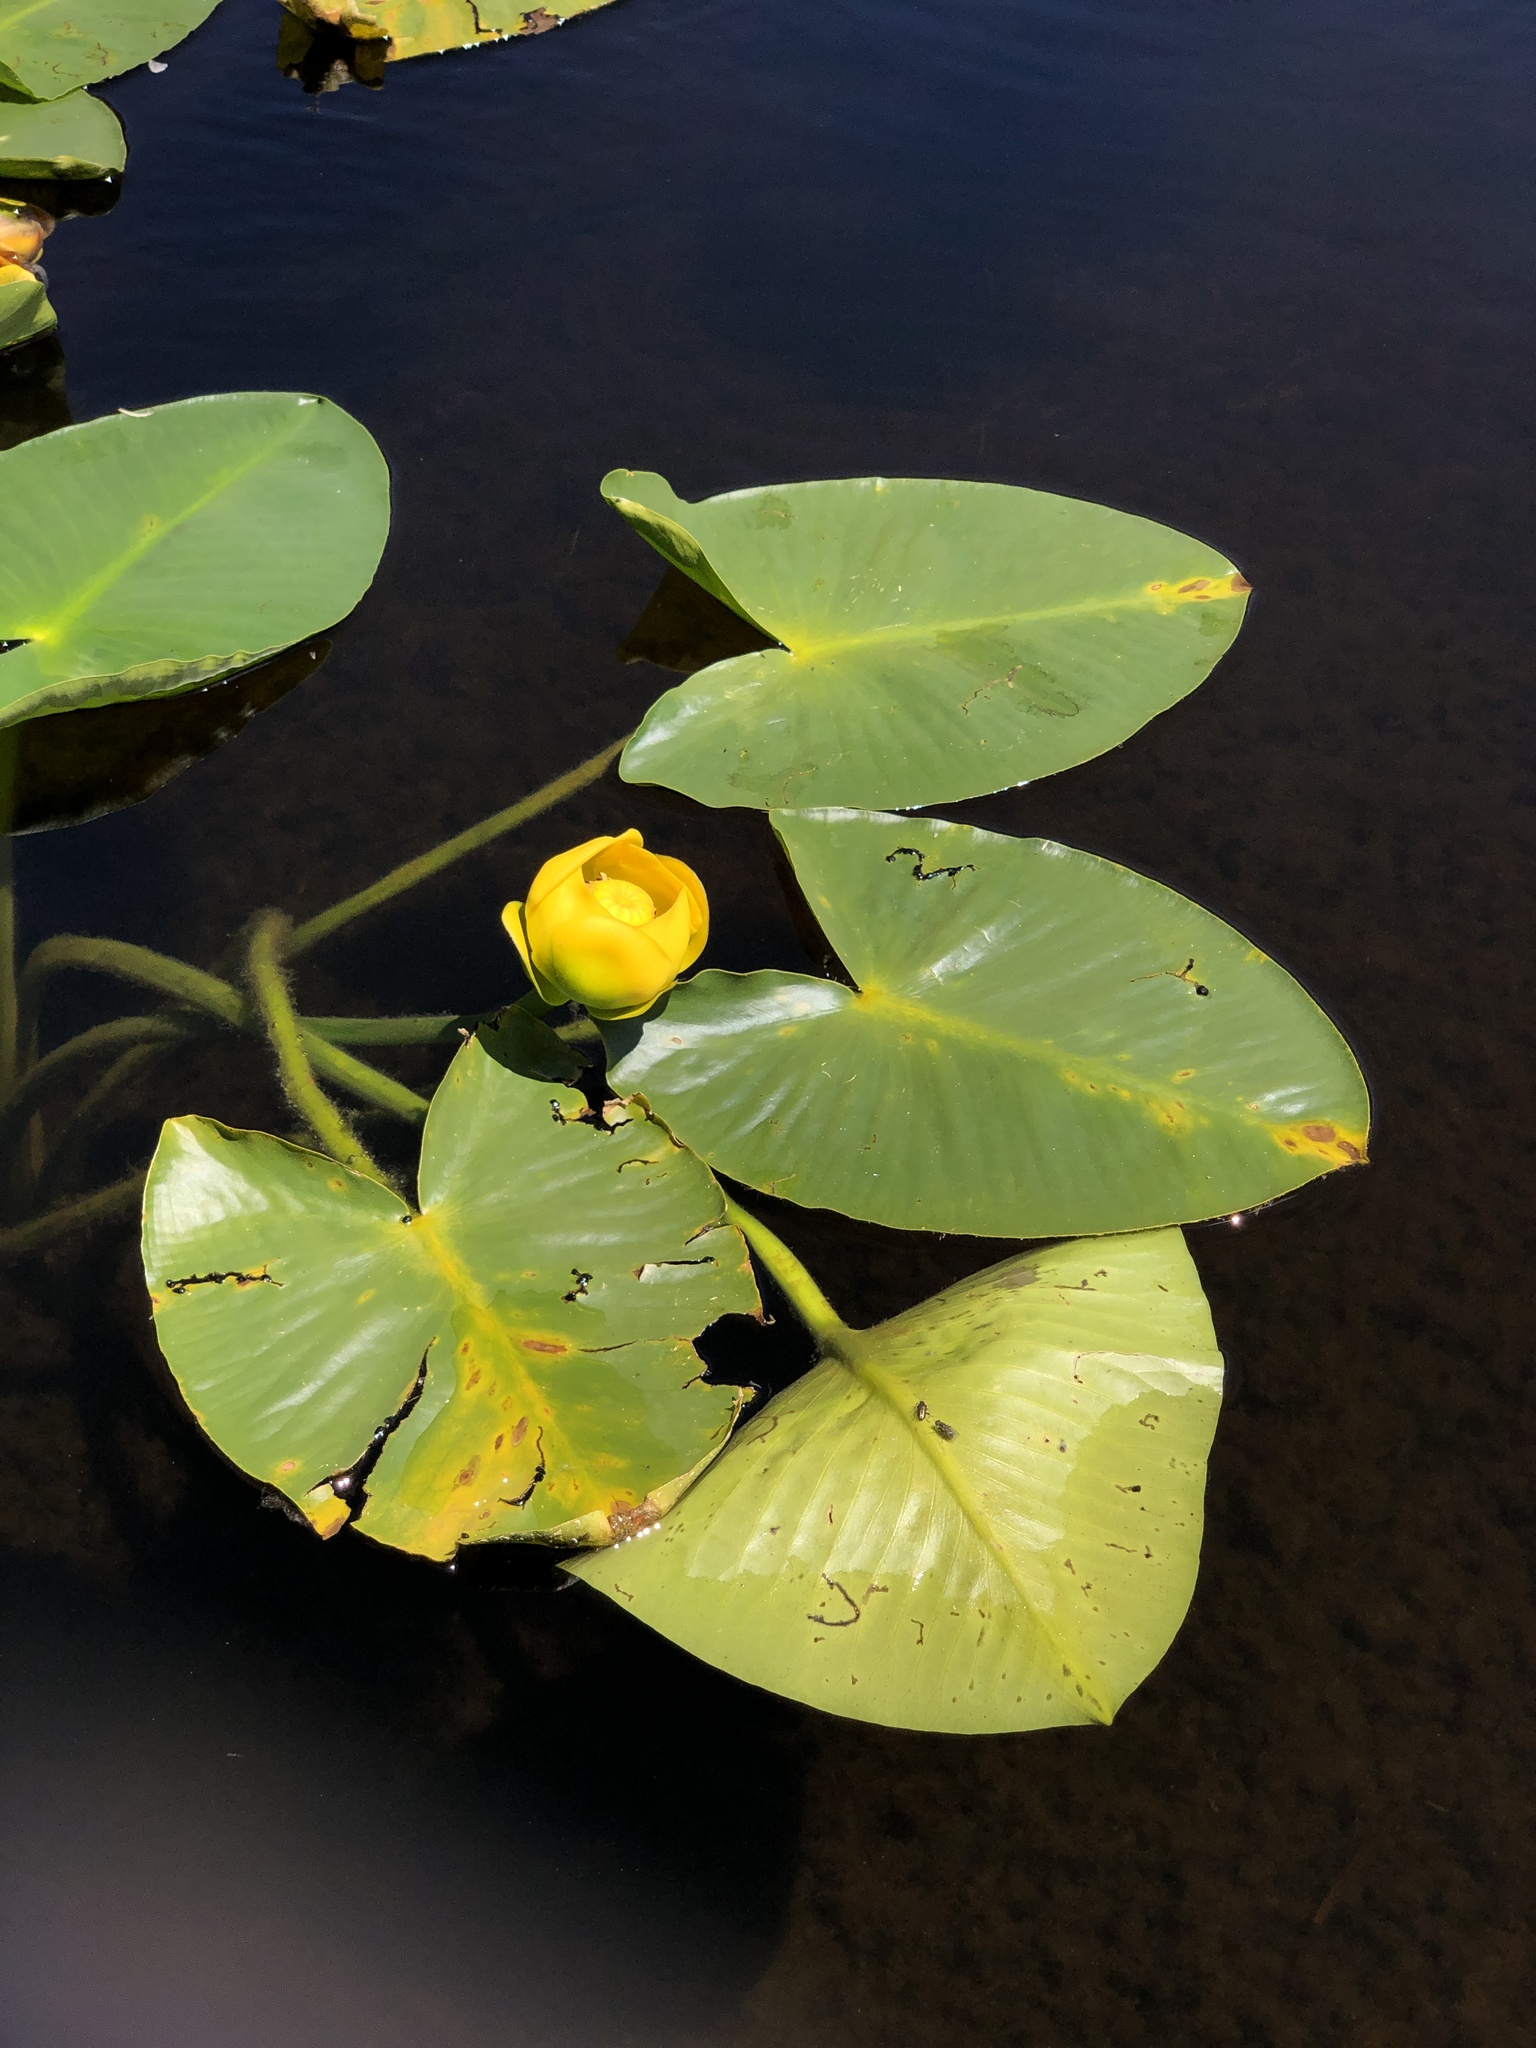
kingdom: Plantae
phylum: Tracheophyta
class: Magnoliopsida
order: Nymphaeales
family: Nymphaeaceae
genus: Nuphar
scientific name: Nuphar polysepala
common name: Rocky mountain cow-lily
